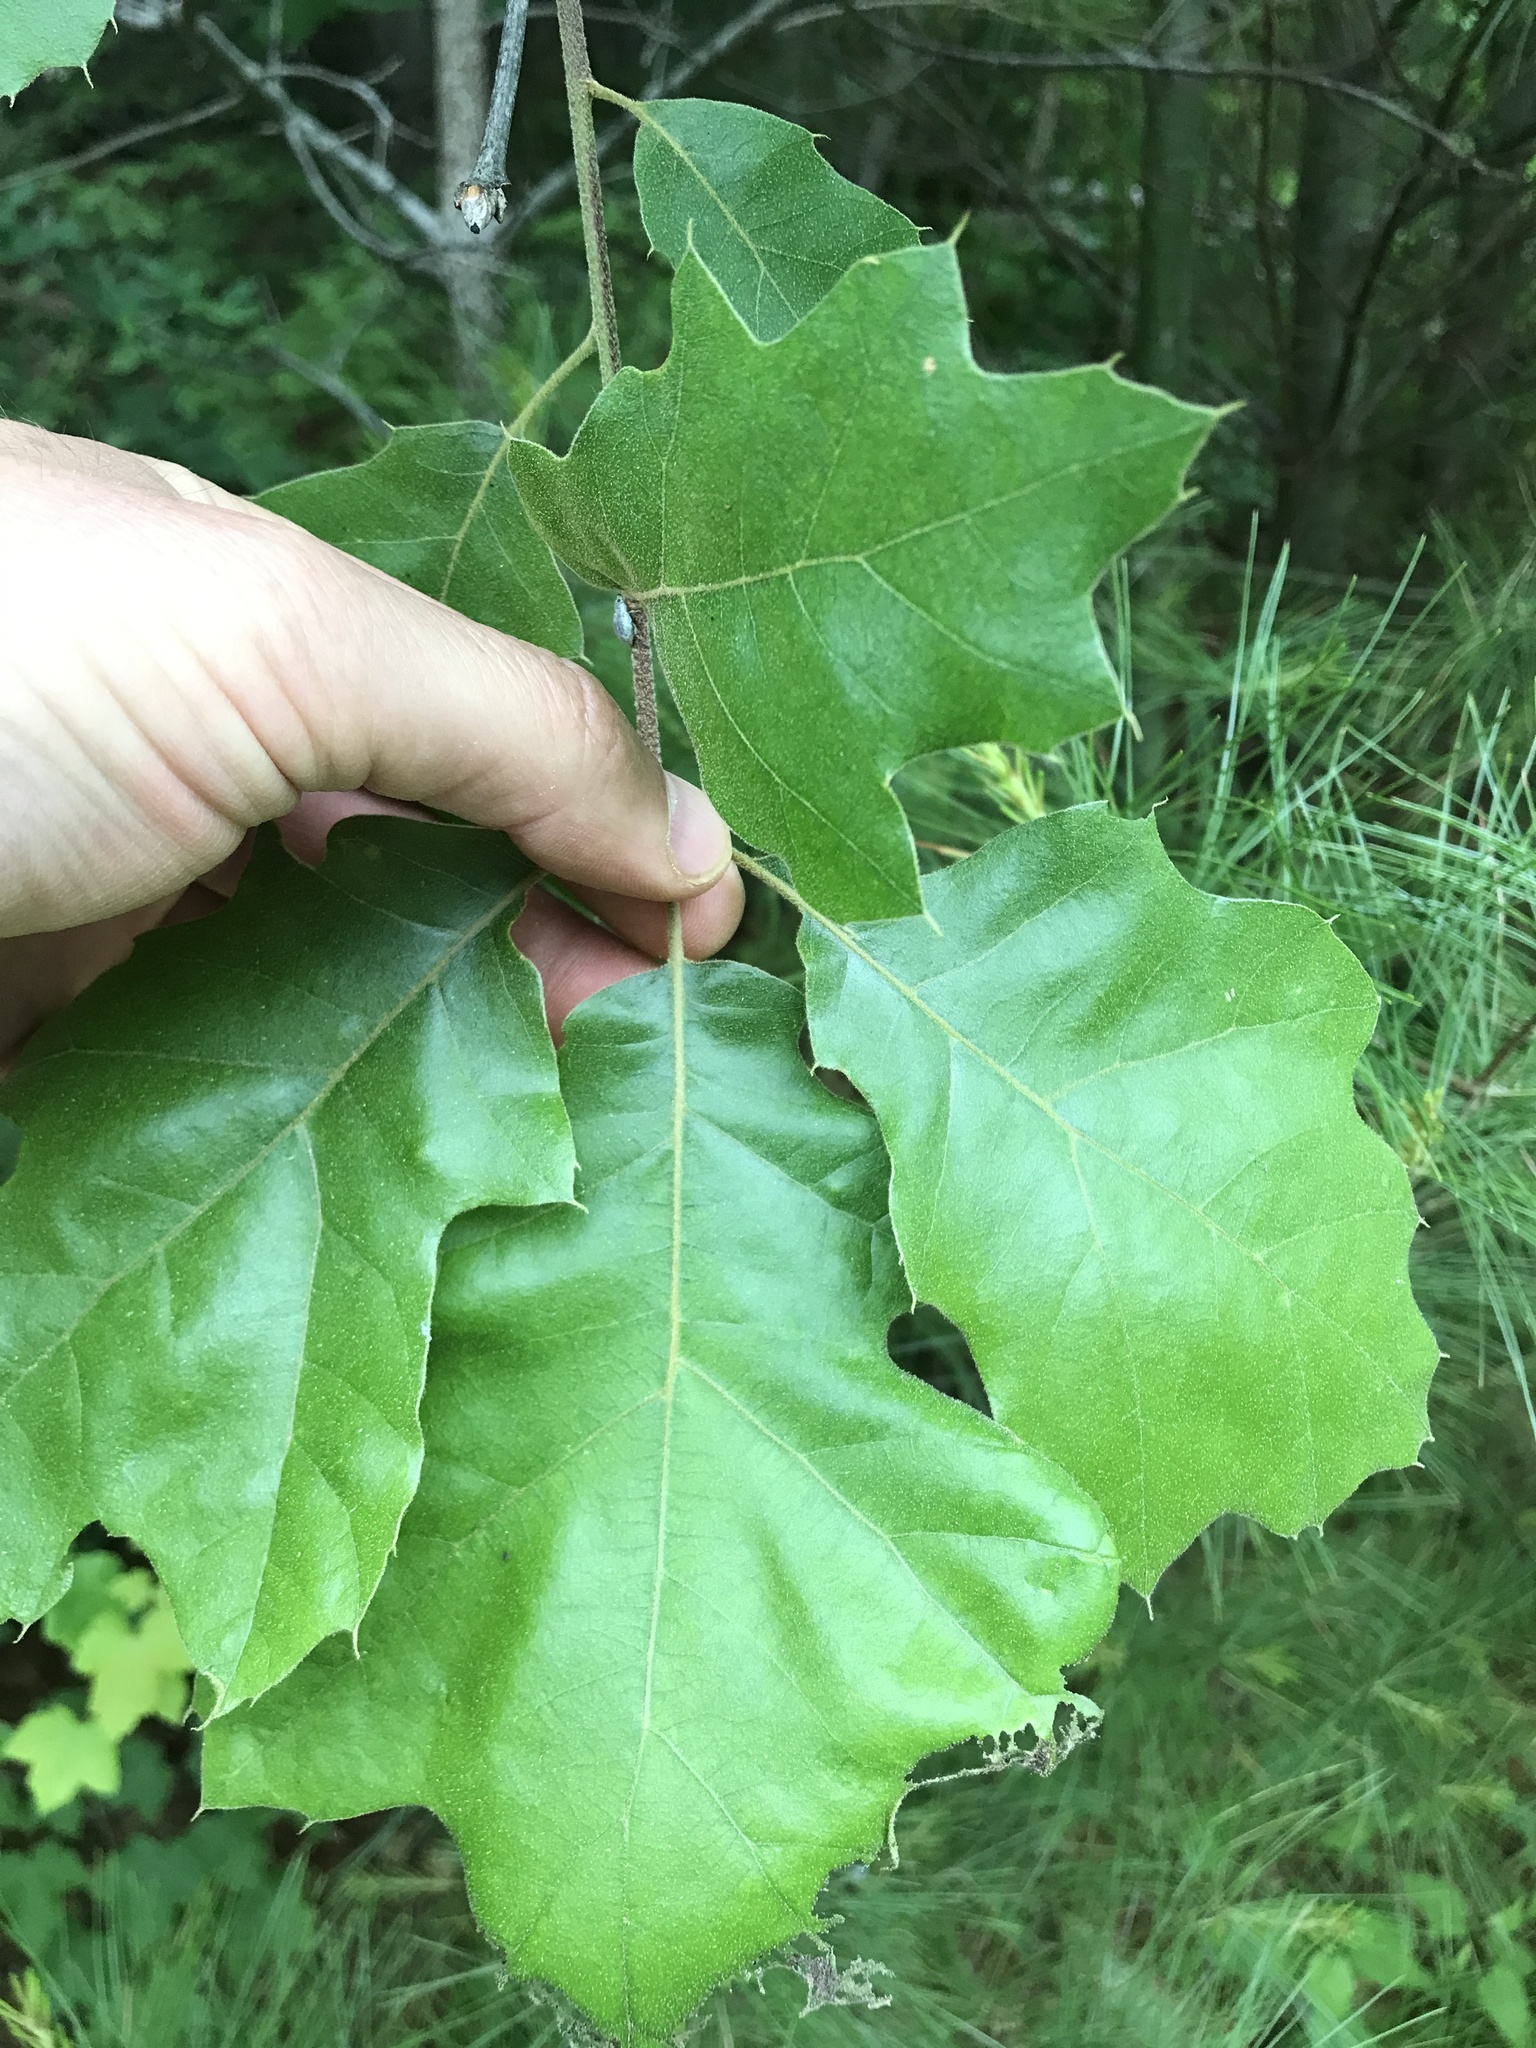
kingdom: Plantae
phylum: Tracheophyta
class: Magnoliopsida
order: Fagales
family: Fagaceae
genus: Quercus
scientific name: Quercus velutina
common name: Black oak
